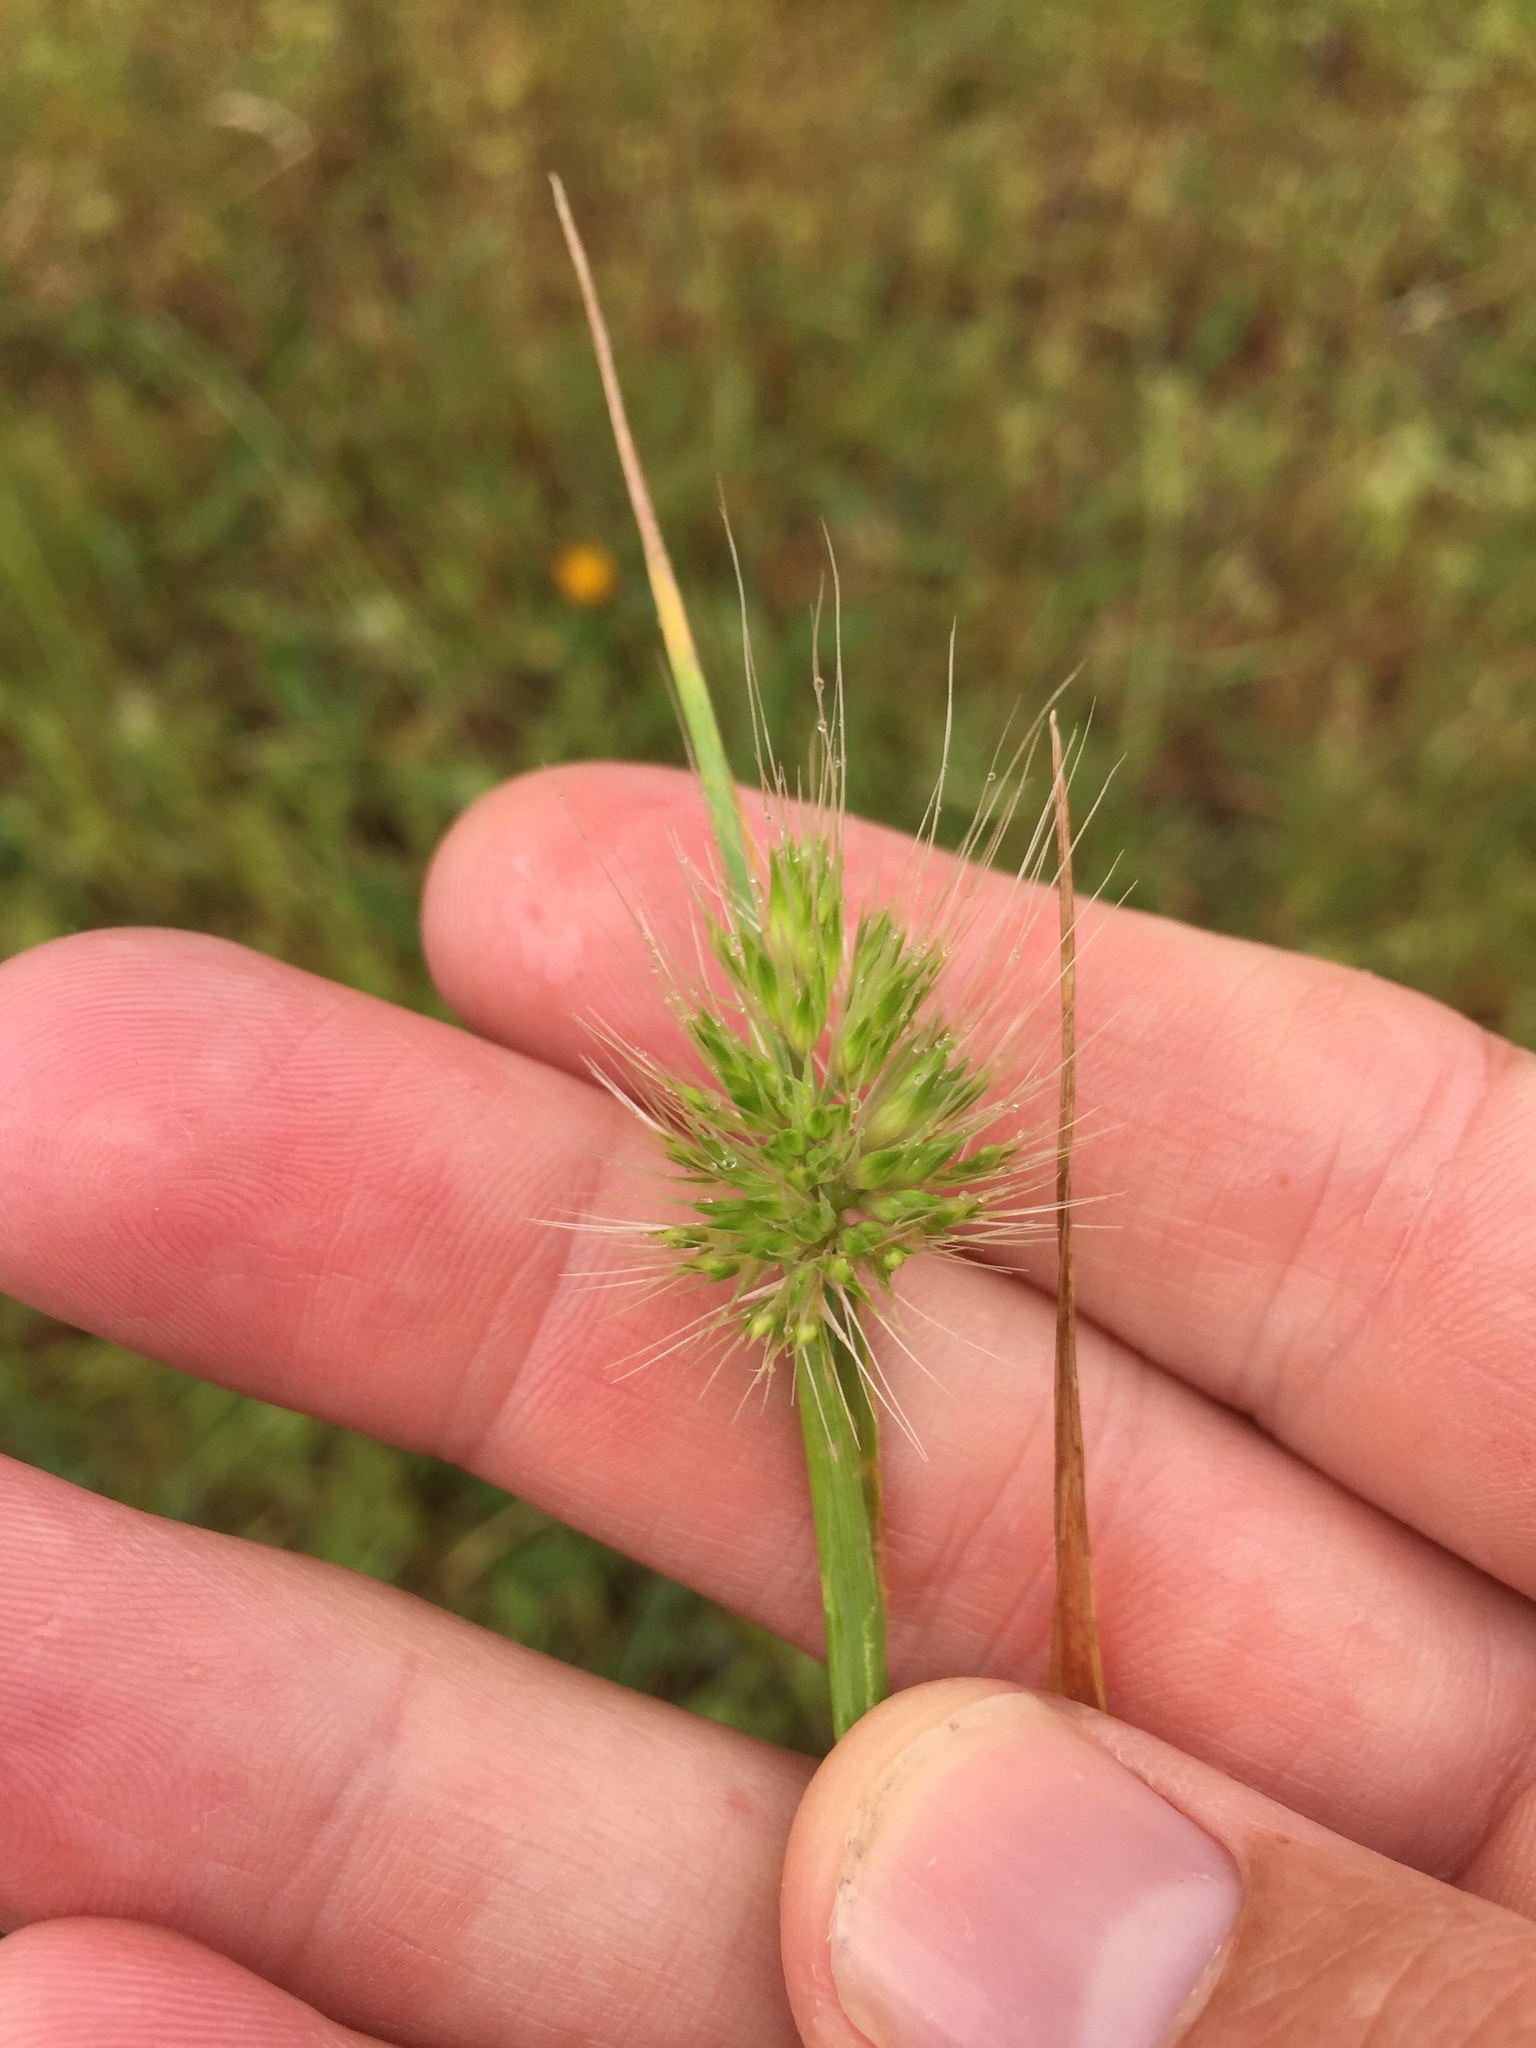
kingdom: Plantae
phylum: Tracheophyta
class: Liliopsida
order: Poales
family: Poaceae
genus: Cynosurus
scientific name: Cynosurus echinatus
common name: Rough dog's-tail
